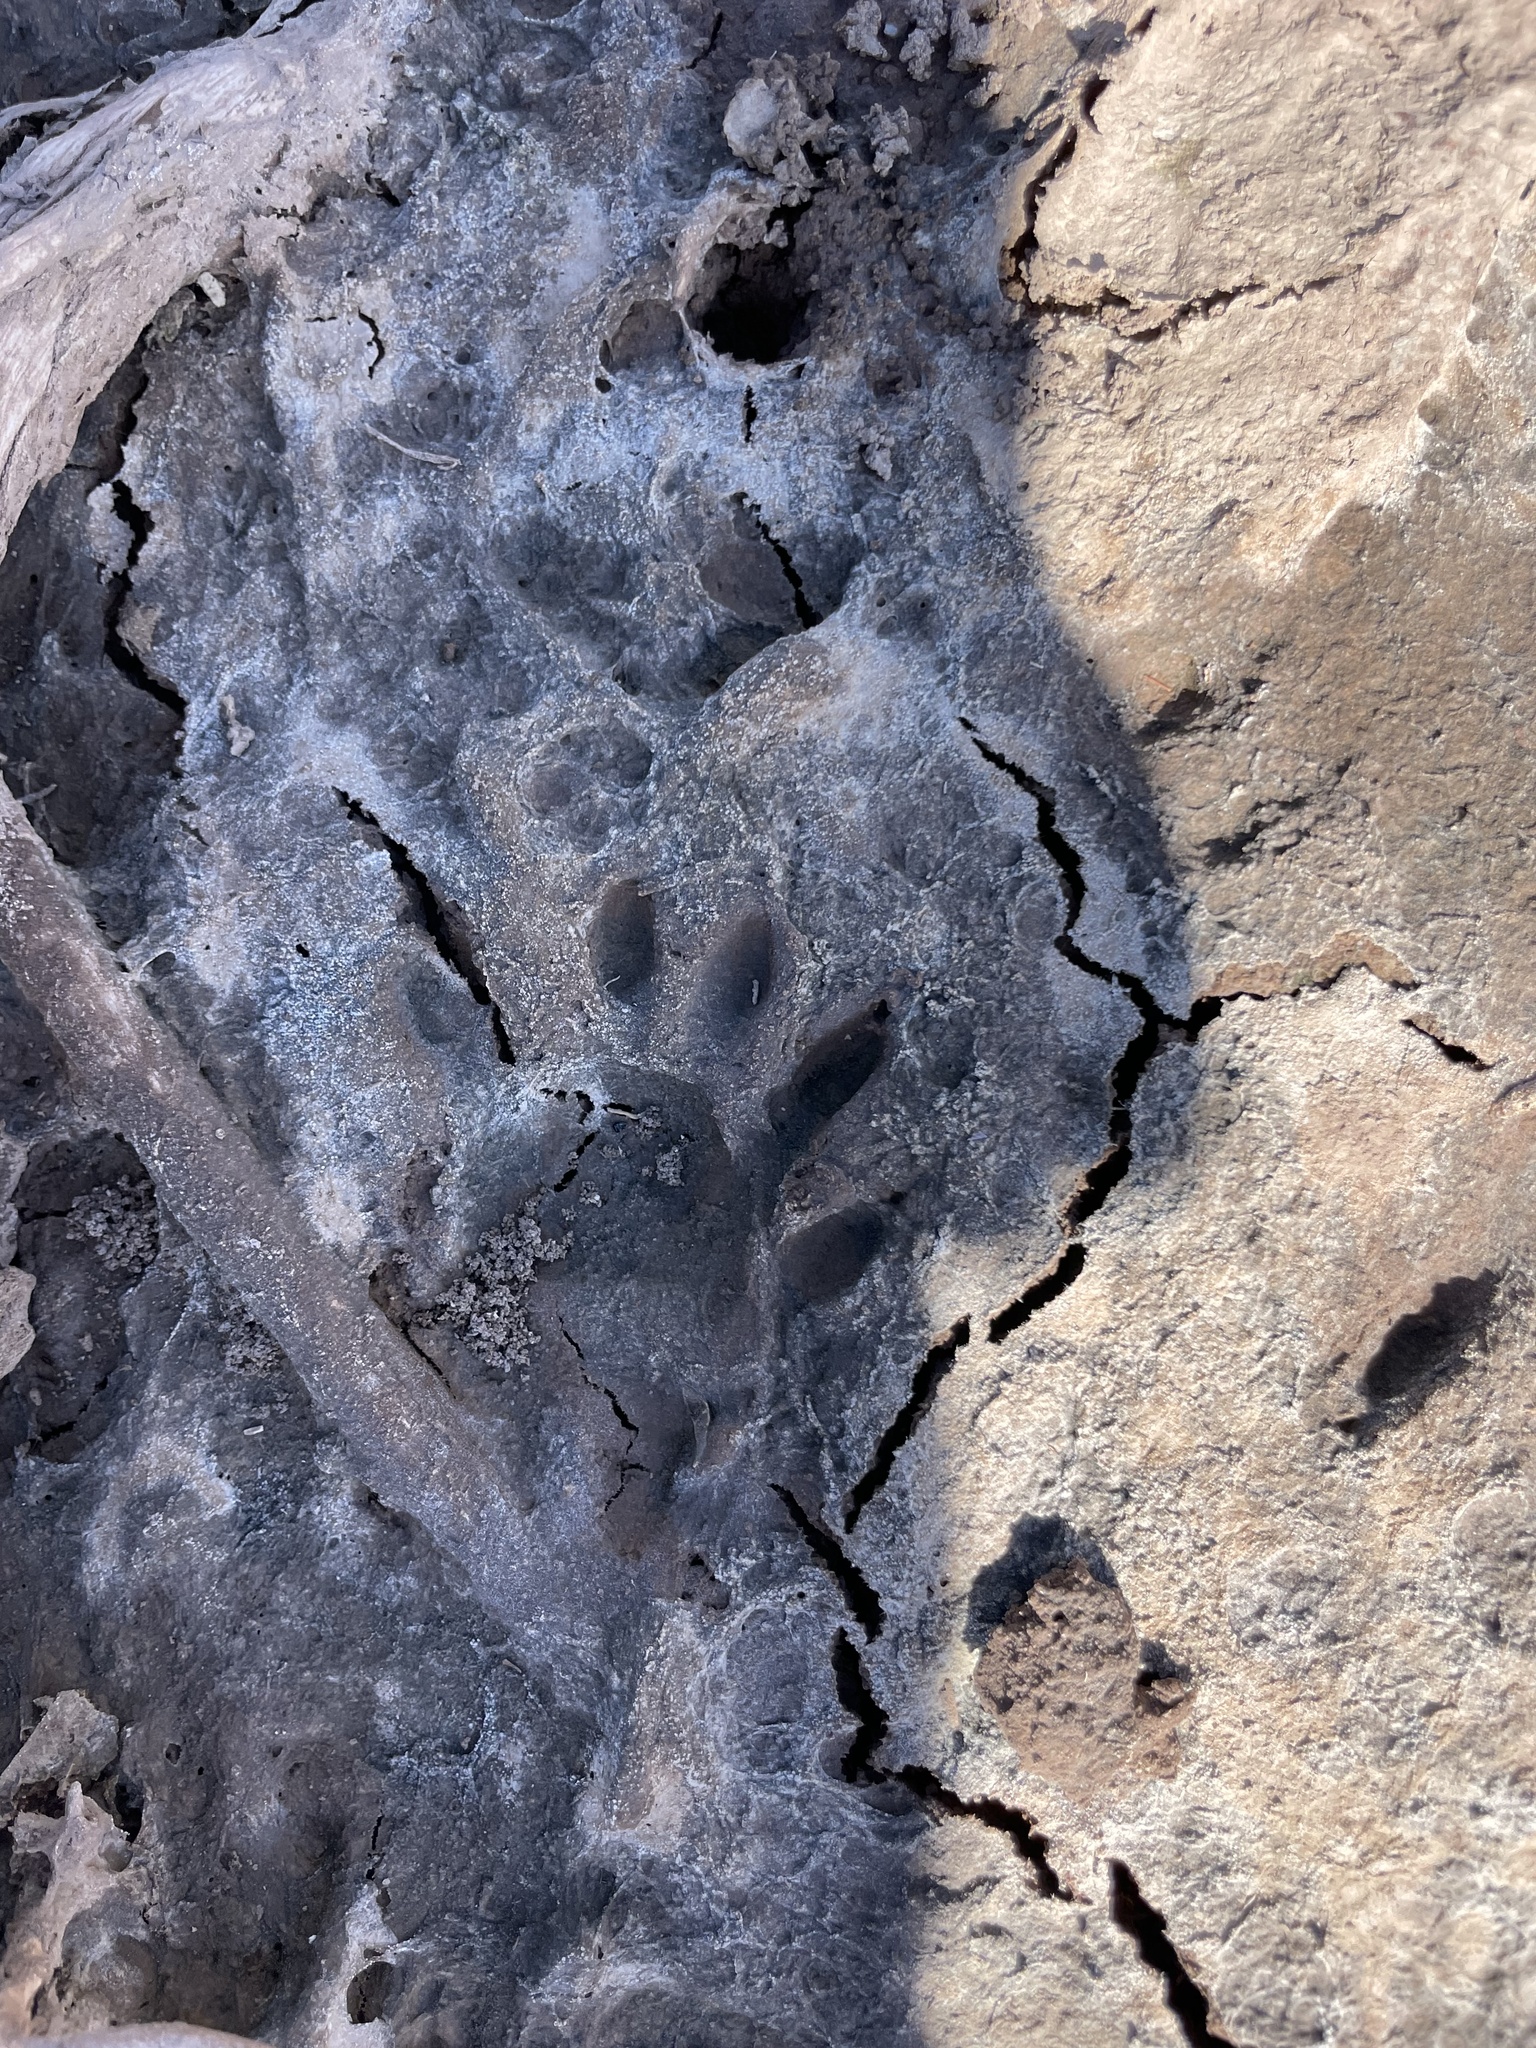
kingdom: Animalia
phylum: Chordata
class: Mammalia
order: Carnivora
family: Procyonidae
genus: Procyon
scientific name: Procyon lotor
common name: Raccoon
